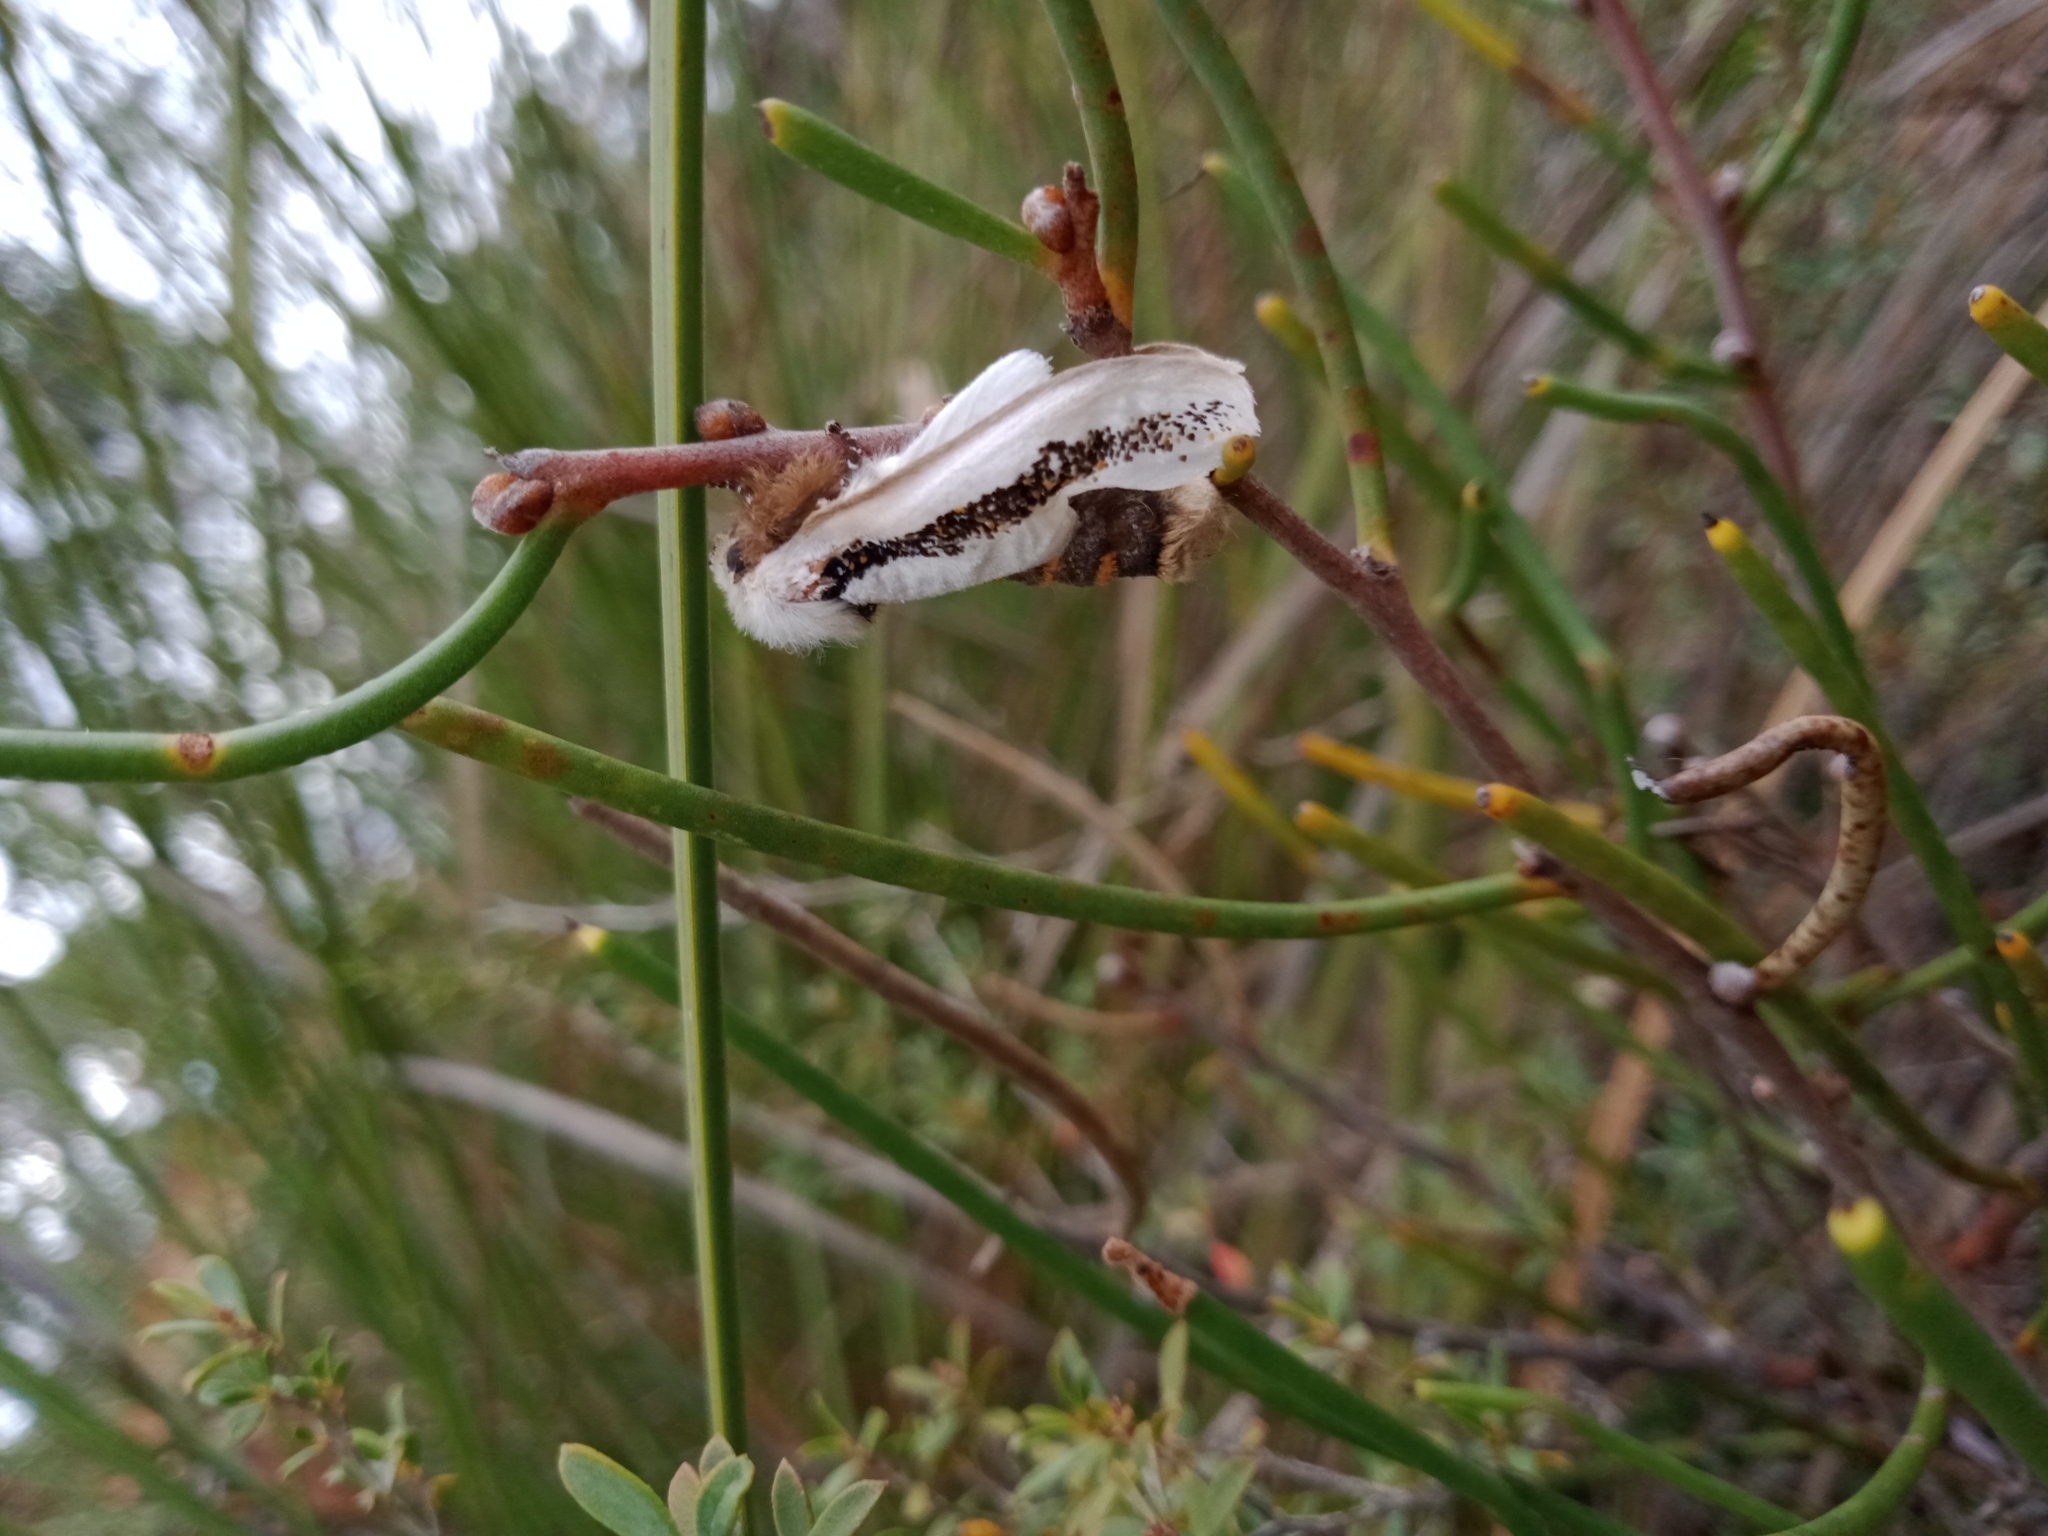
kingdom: Animalia
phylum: Arthropoda
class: Insecta
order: Lepidoptera
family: Oenosandridae
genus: Oenosandra
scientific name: Oenosandra boisduvalii
